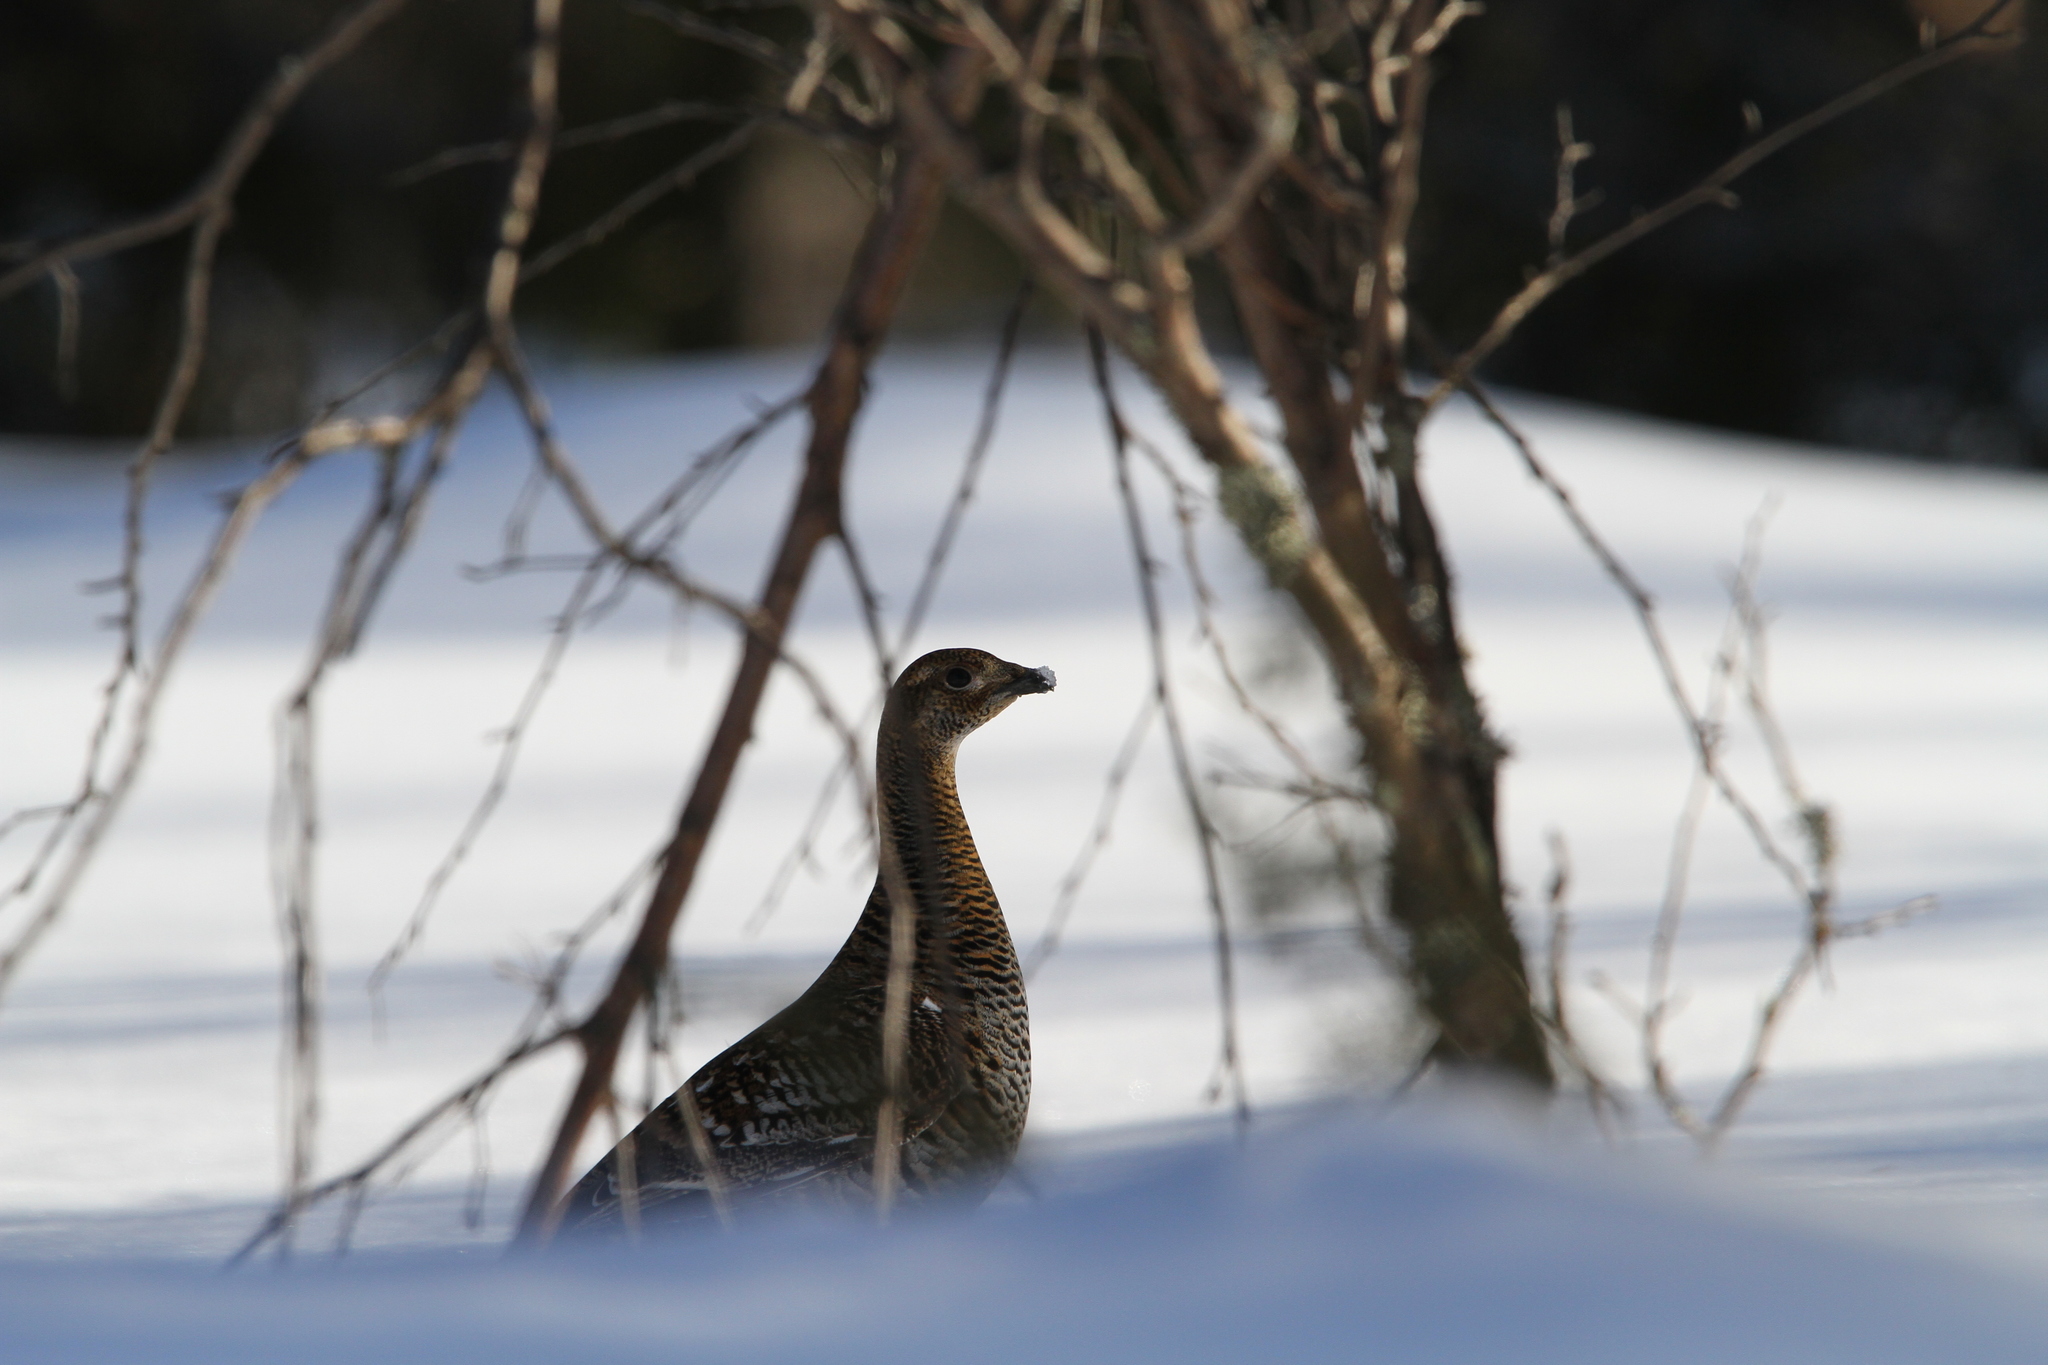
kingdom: Animalia
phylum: Chordata
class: Aves
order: Galliformes
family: Phasianidae
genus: Lyrurus
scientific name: Lyrurus tetrix
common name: Black grouse
